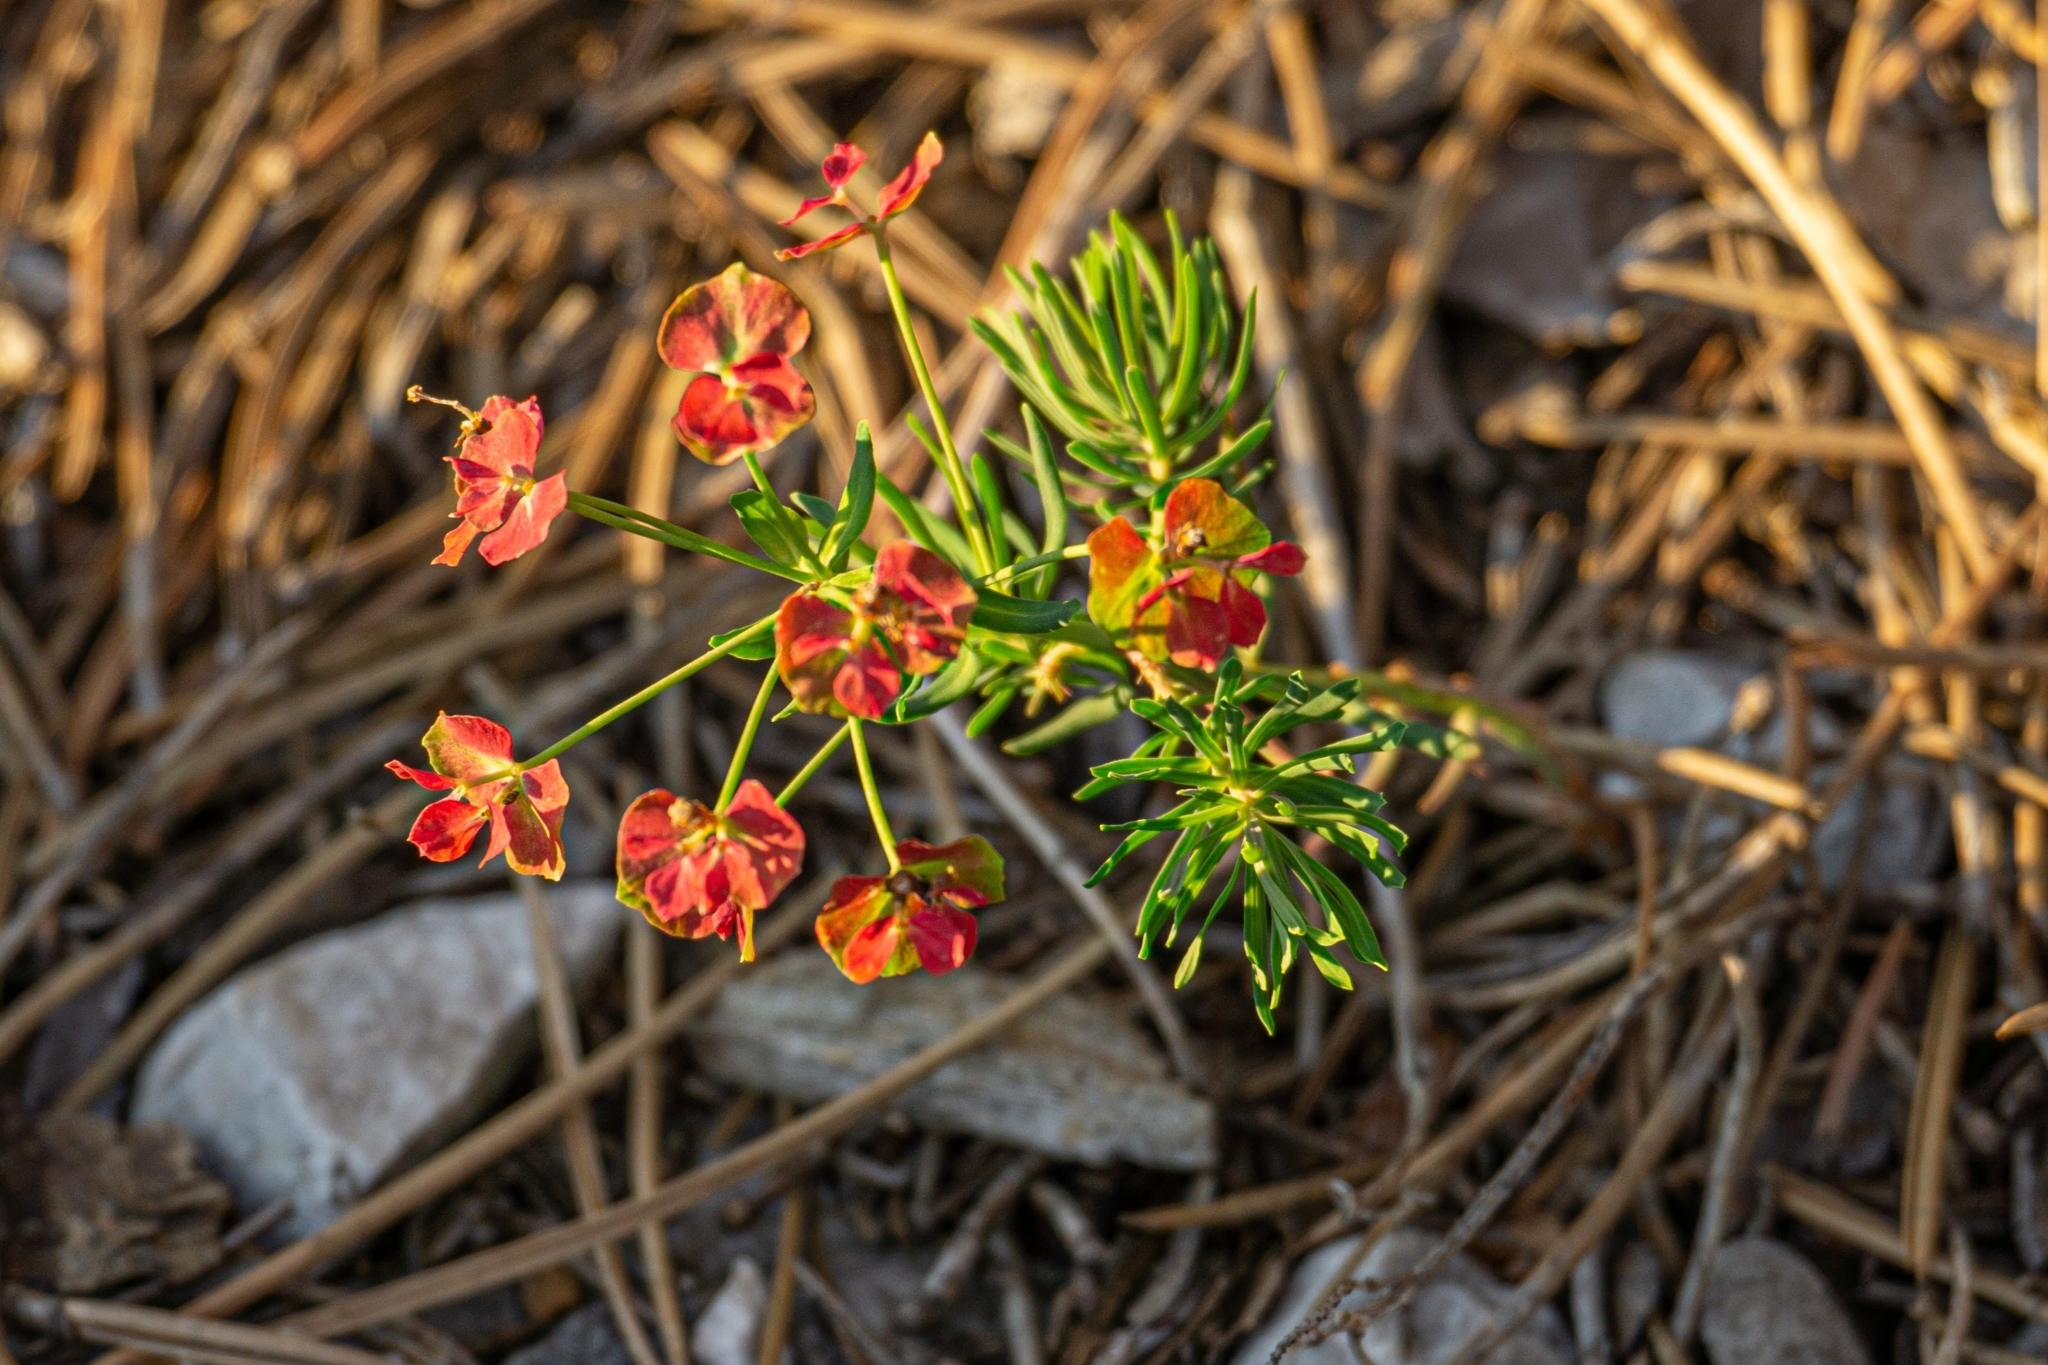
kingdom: Plantae
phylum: Tracheophyta
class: Magnoliopsida
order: Malpighiales
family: Euphorbiaceae
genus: Euphorbia
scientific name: Euphorbia cyparissias
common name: Cypress spurge
